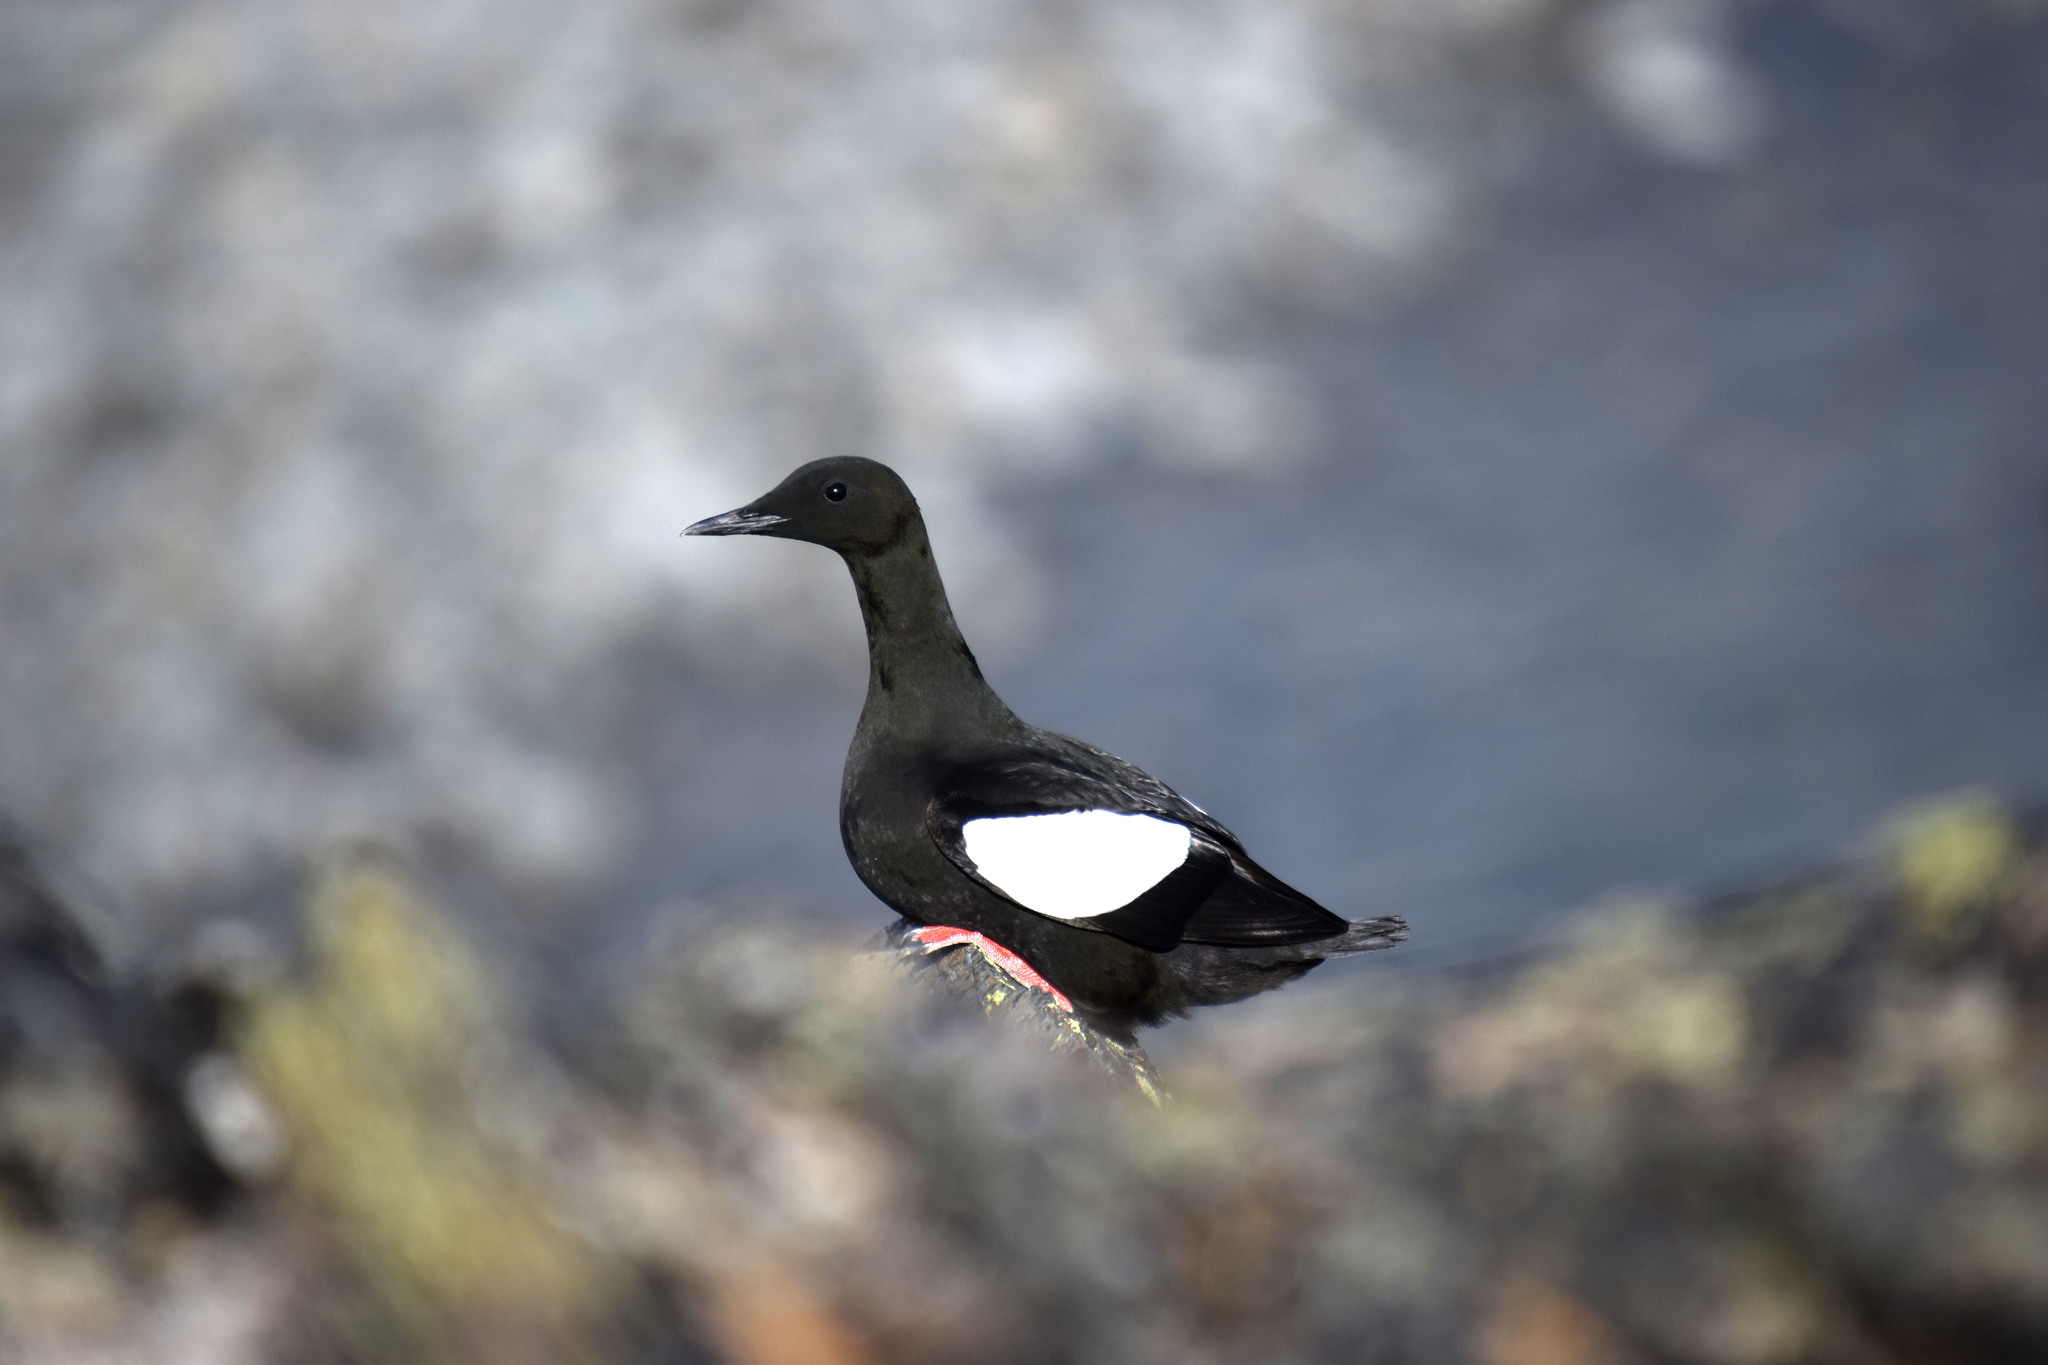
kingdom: Animalia
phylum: Chordata
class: Aves
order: Charadriiformes
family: Alcidae
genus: Cepphus
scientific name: Cepphus grylle
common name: Black guillemot
